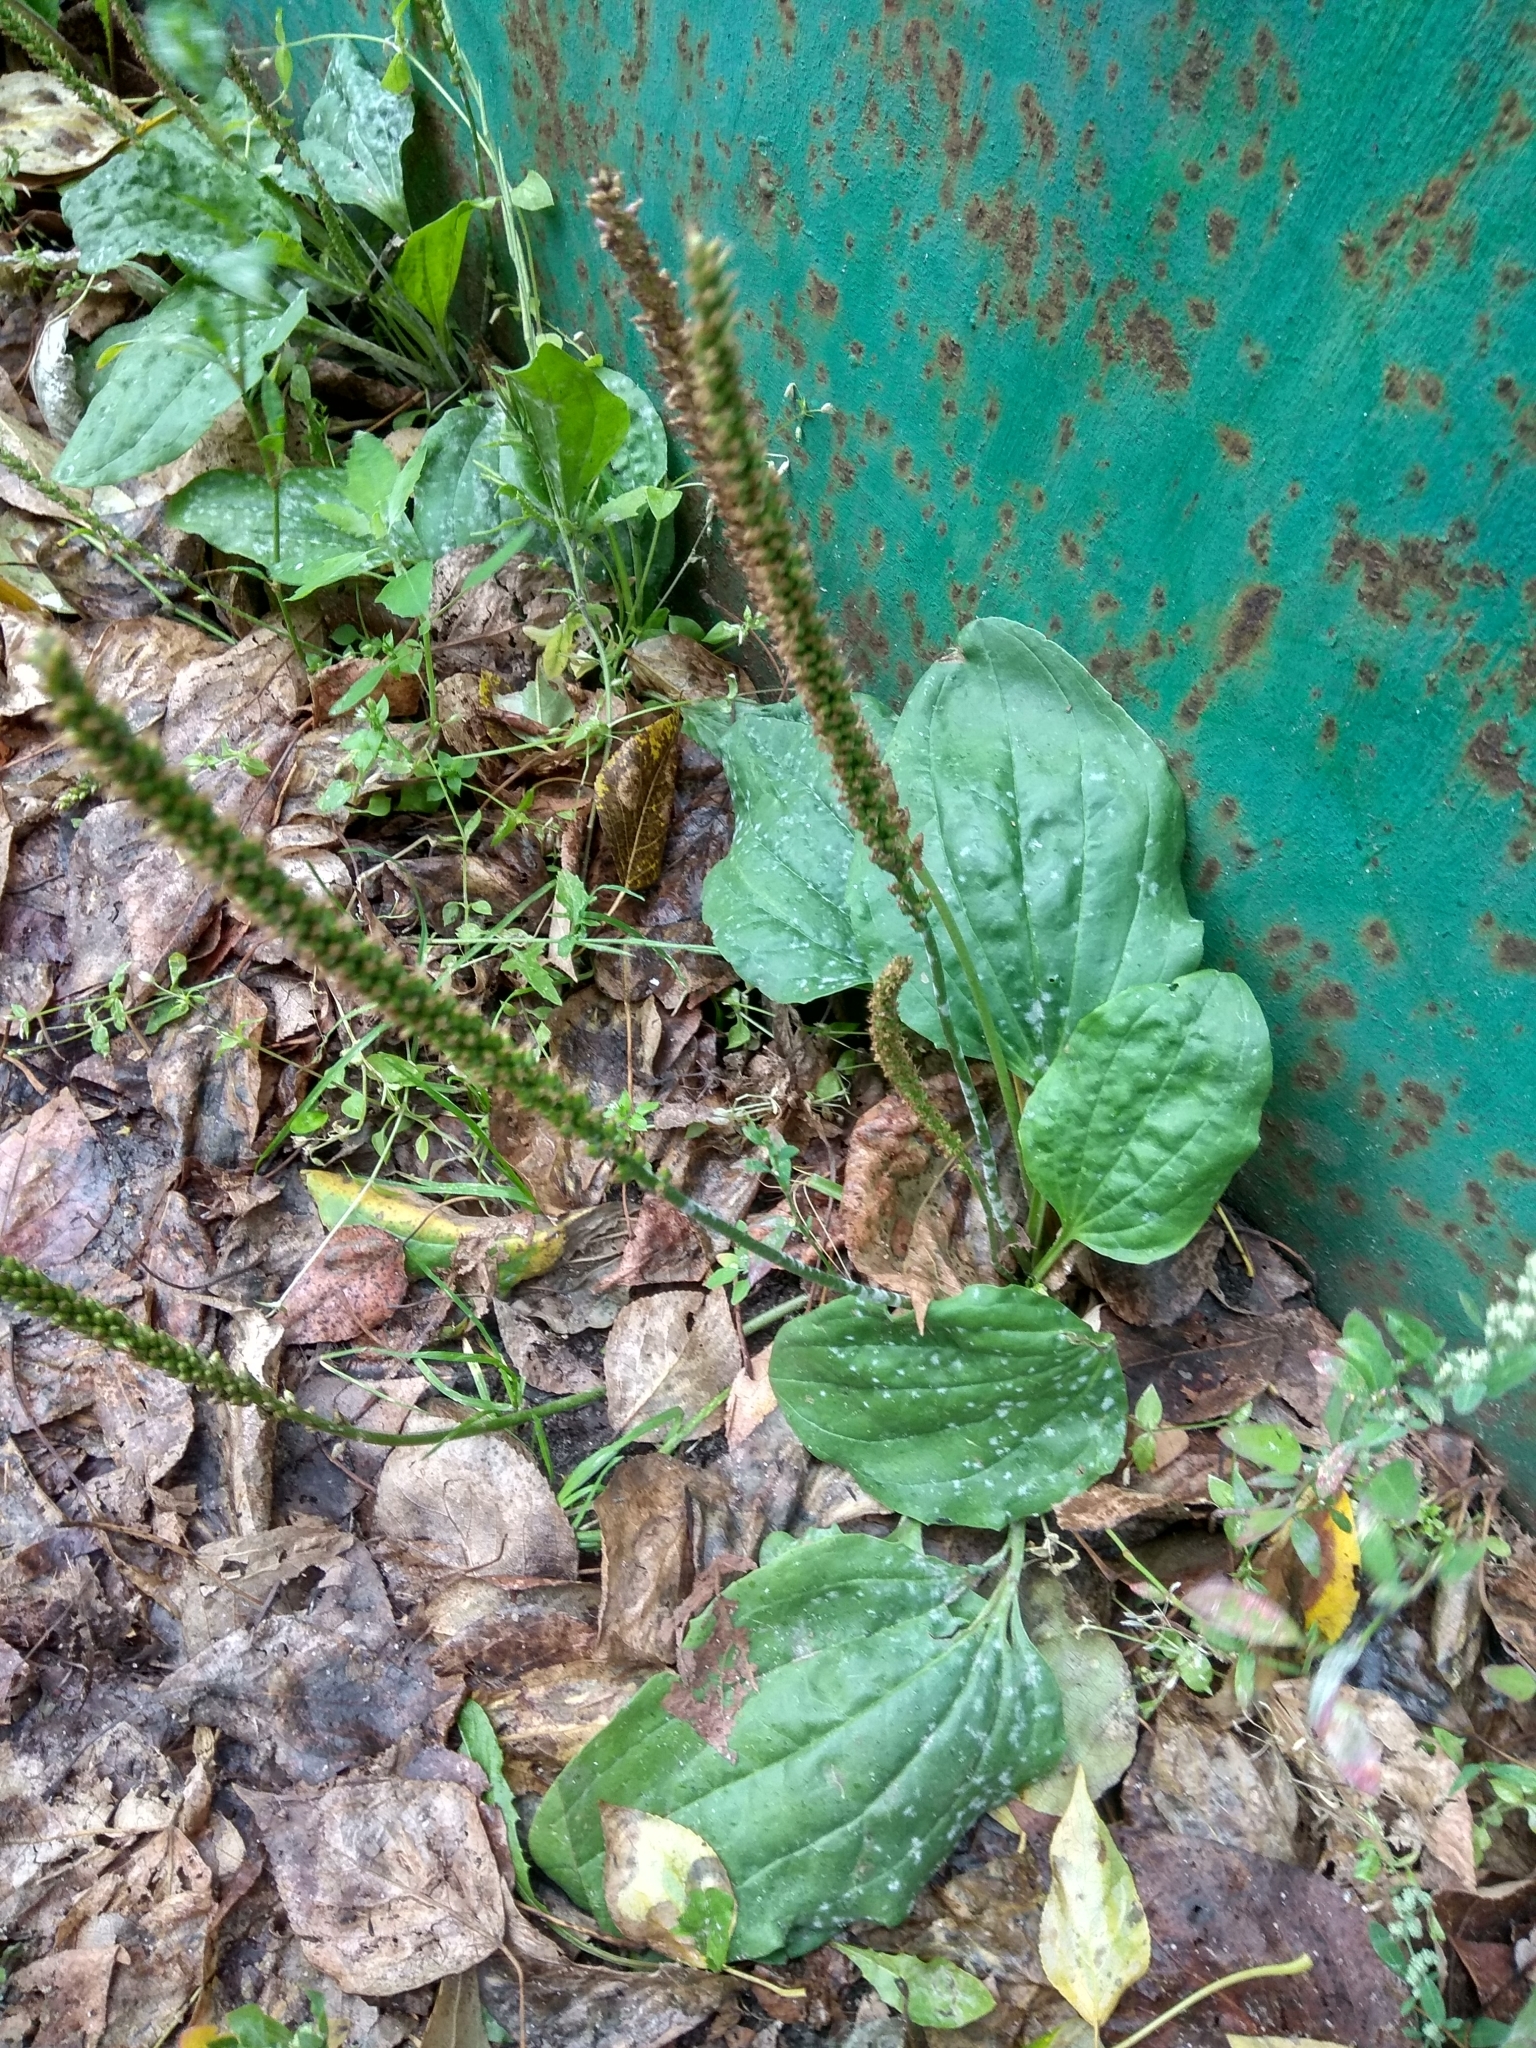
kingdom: Plantae
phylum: Tracheophyta
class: Magnoliopsida
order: Lamiales
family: Plantaginaceae
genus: Plantago
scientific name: Plantago major
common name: Common plantain
